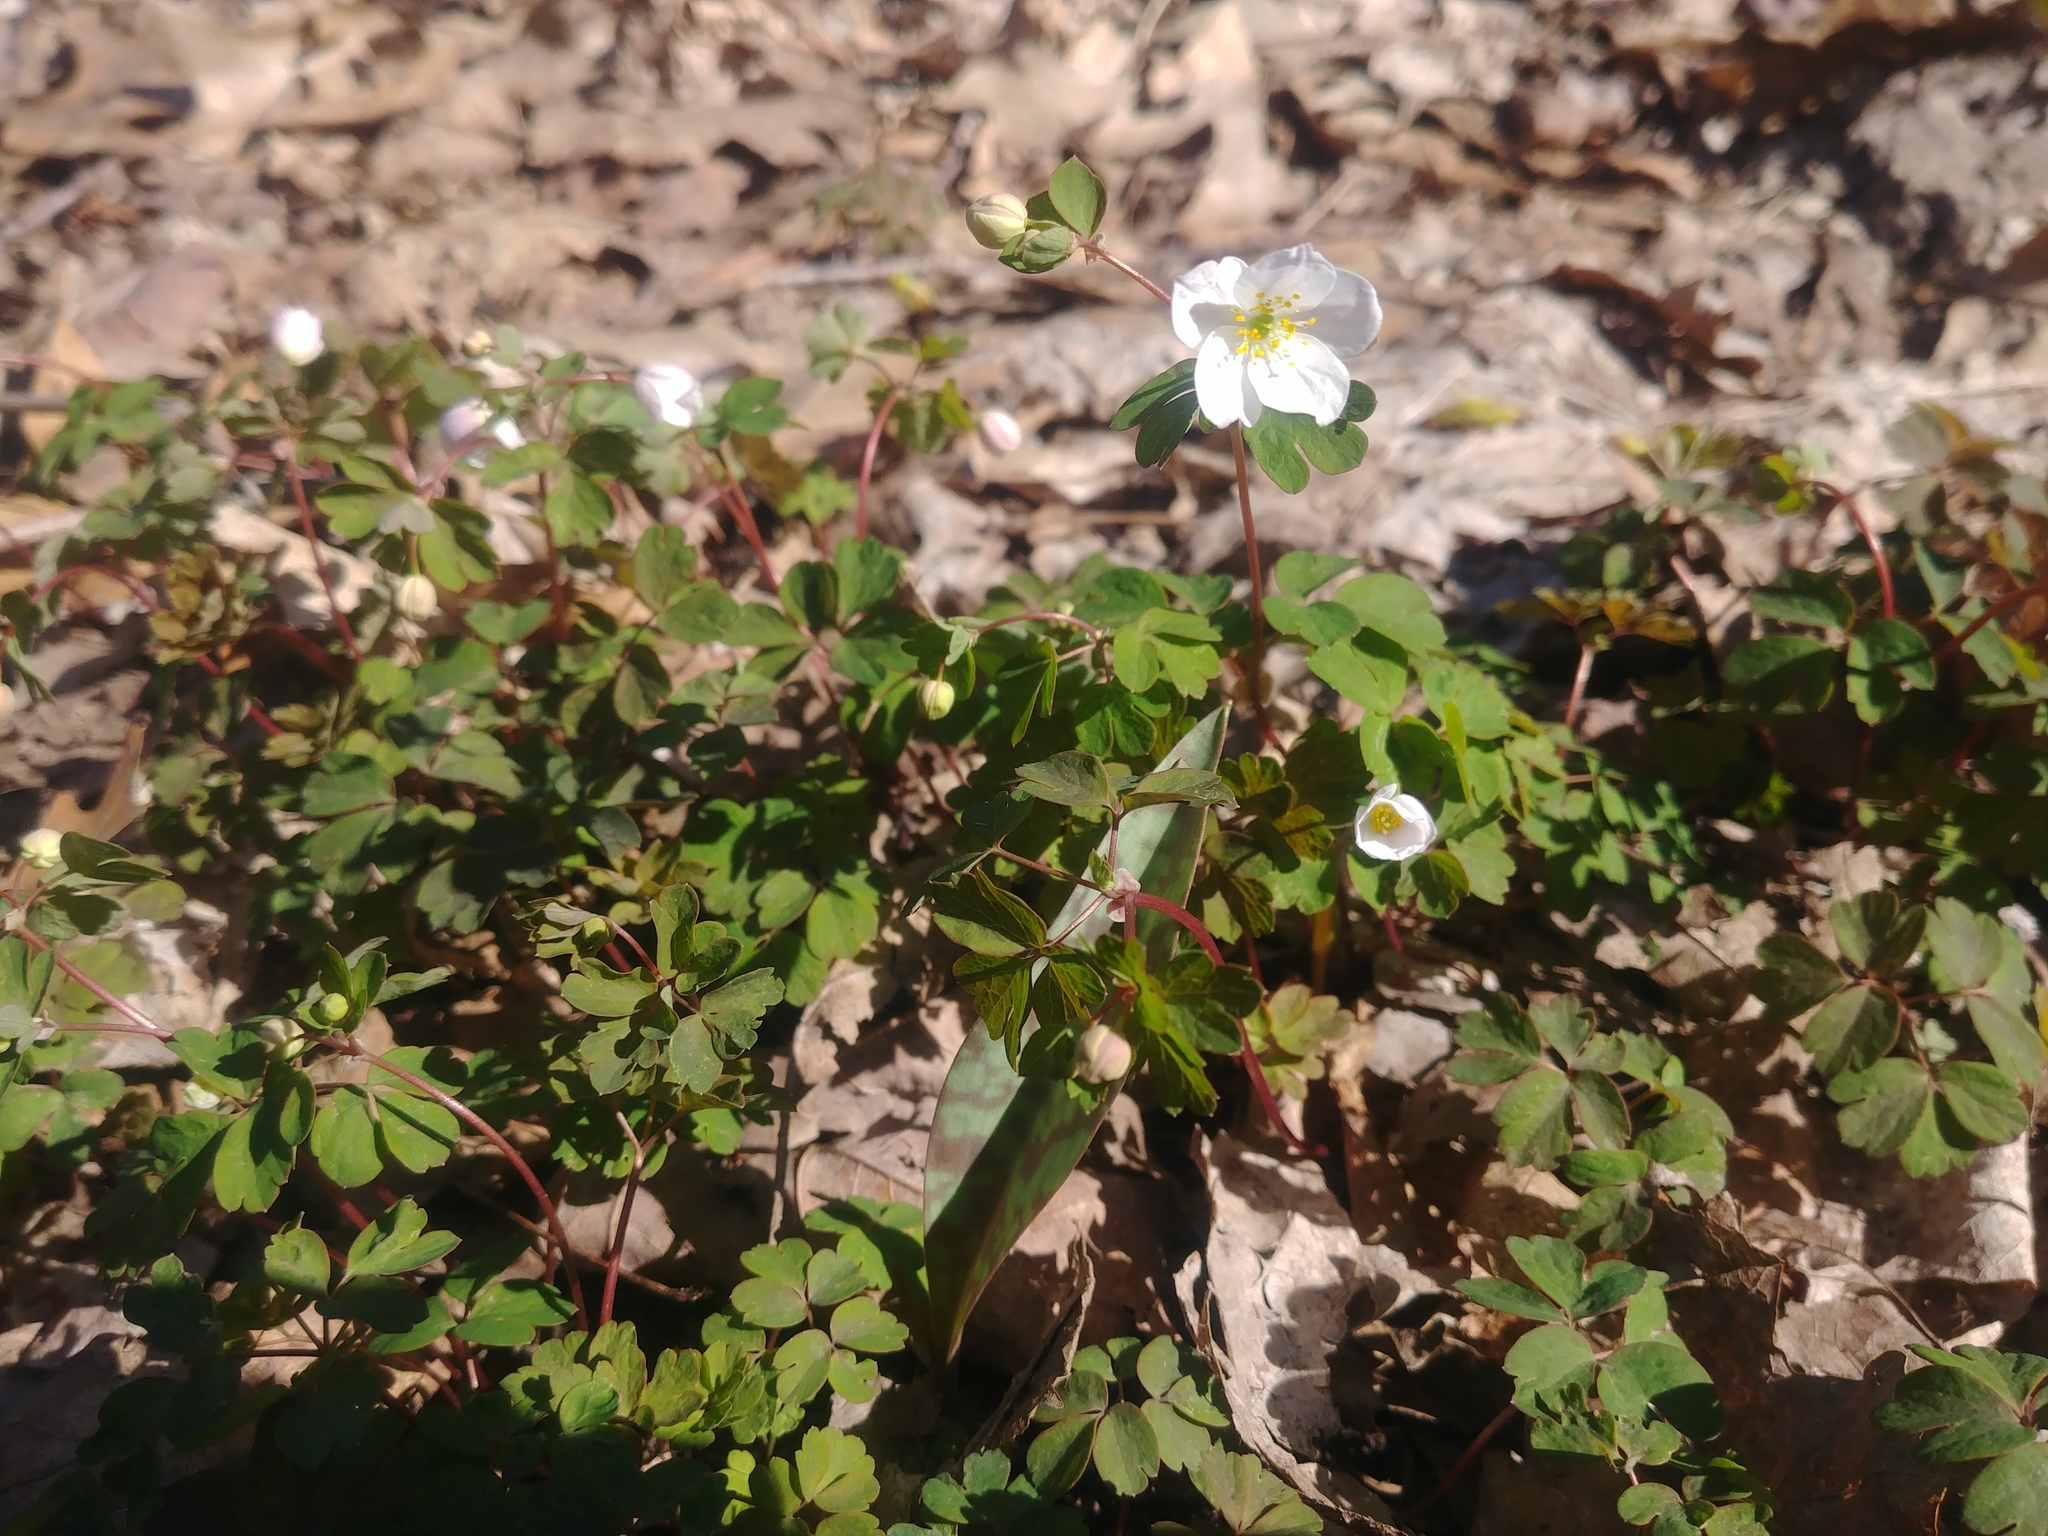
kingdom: Plantae
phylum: Tracheophyta
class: Magnoliopsida
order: Ranunculales
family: Ranunculaceae
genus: Enemion
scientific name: Enemion biternatum
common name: Eastern false rue-anemone
